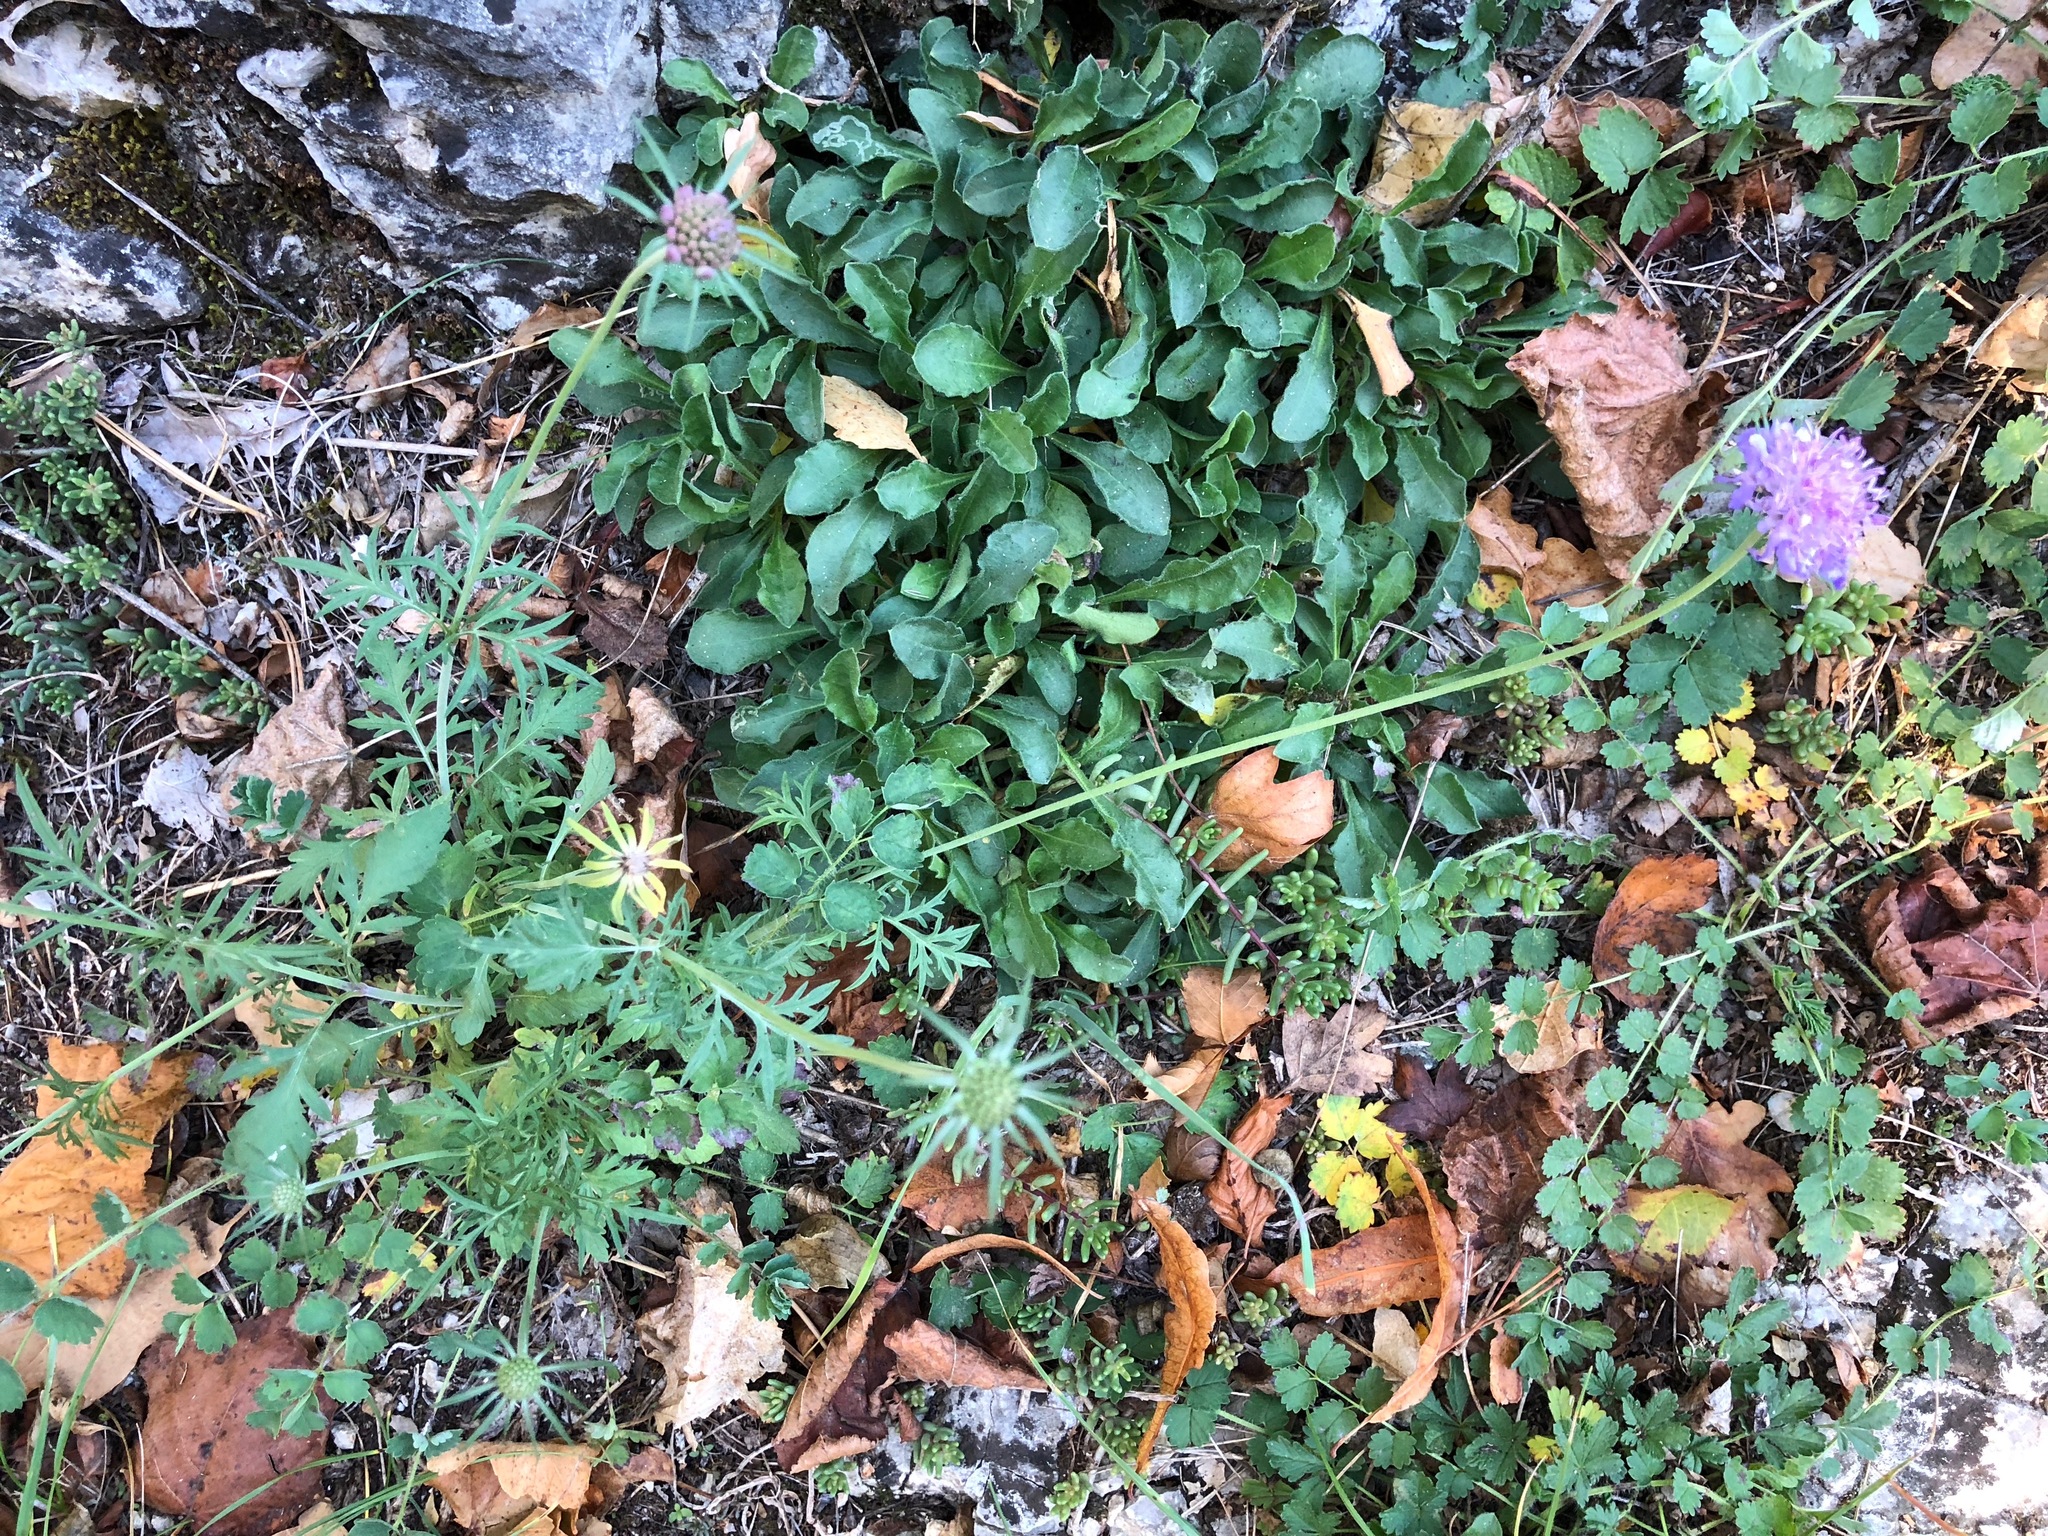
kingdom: Plantae
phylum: Tracheophyta
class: Magnoliopsida
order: Dipsacales
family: Caprifoliaceae
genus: Scabiosa
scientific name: Scabiosa columbaria
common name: Small scabious
